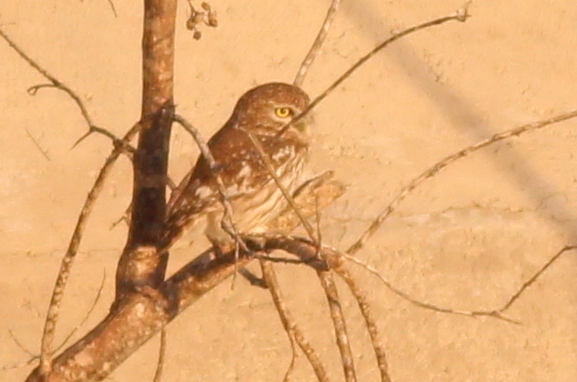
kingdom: Animalia
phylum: Chordata
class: Aves
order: Strigiformes
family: Strigidae
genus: Athene
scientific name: Athene noctua
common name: Little owl
